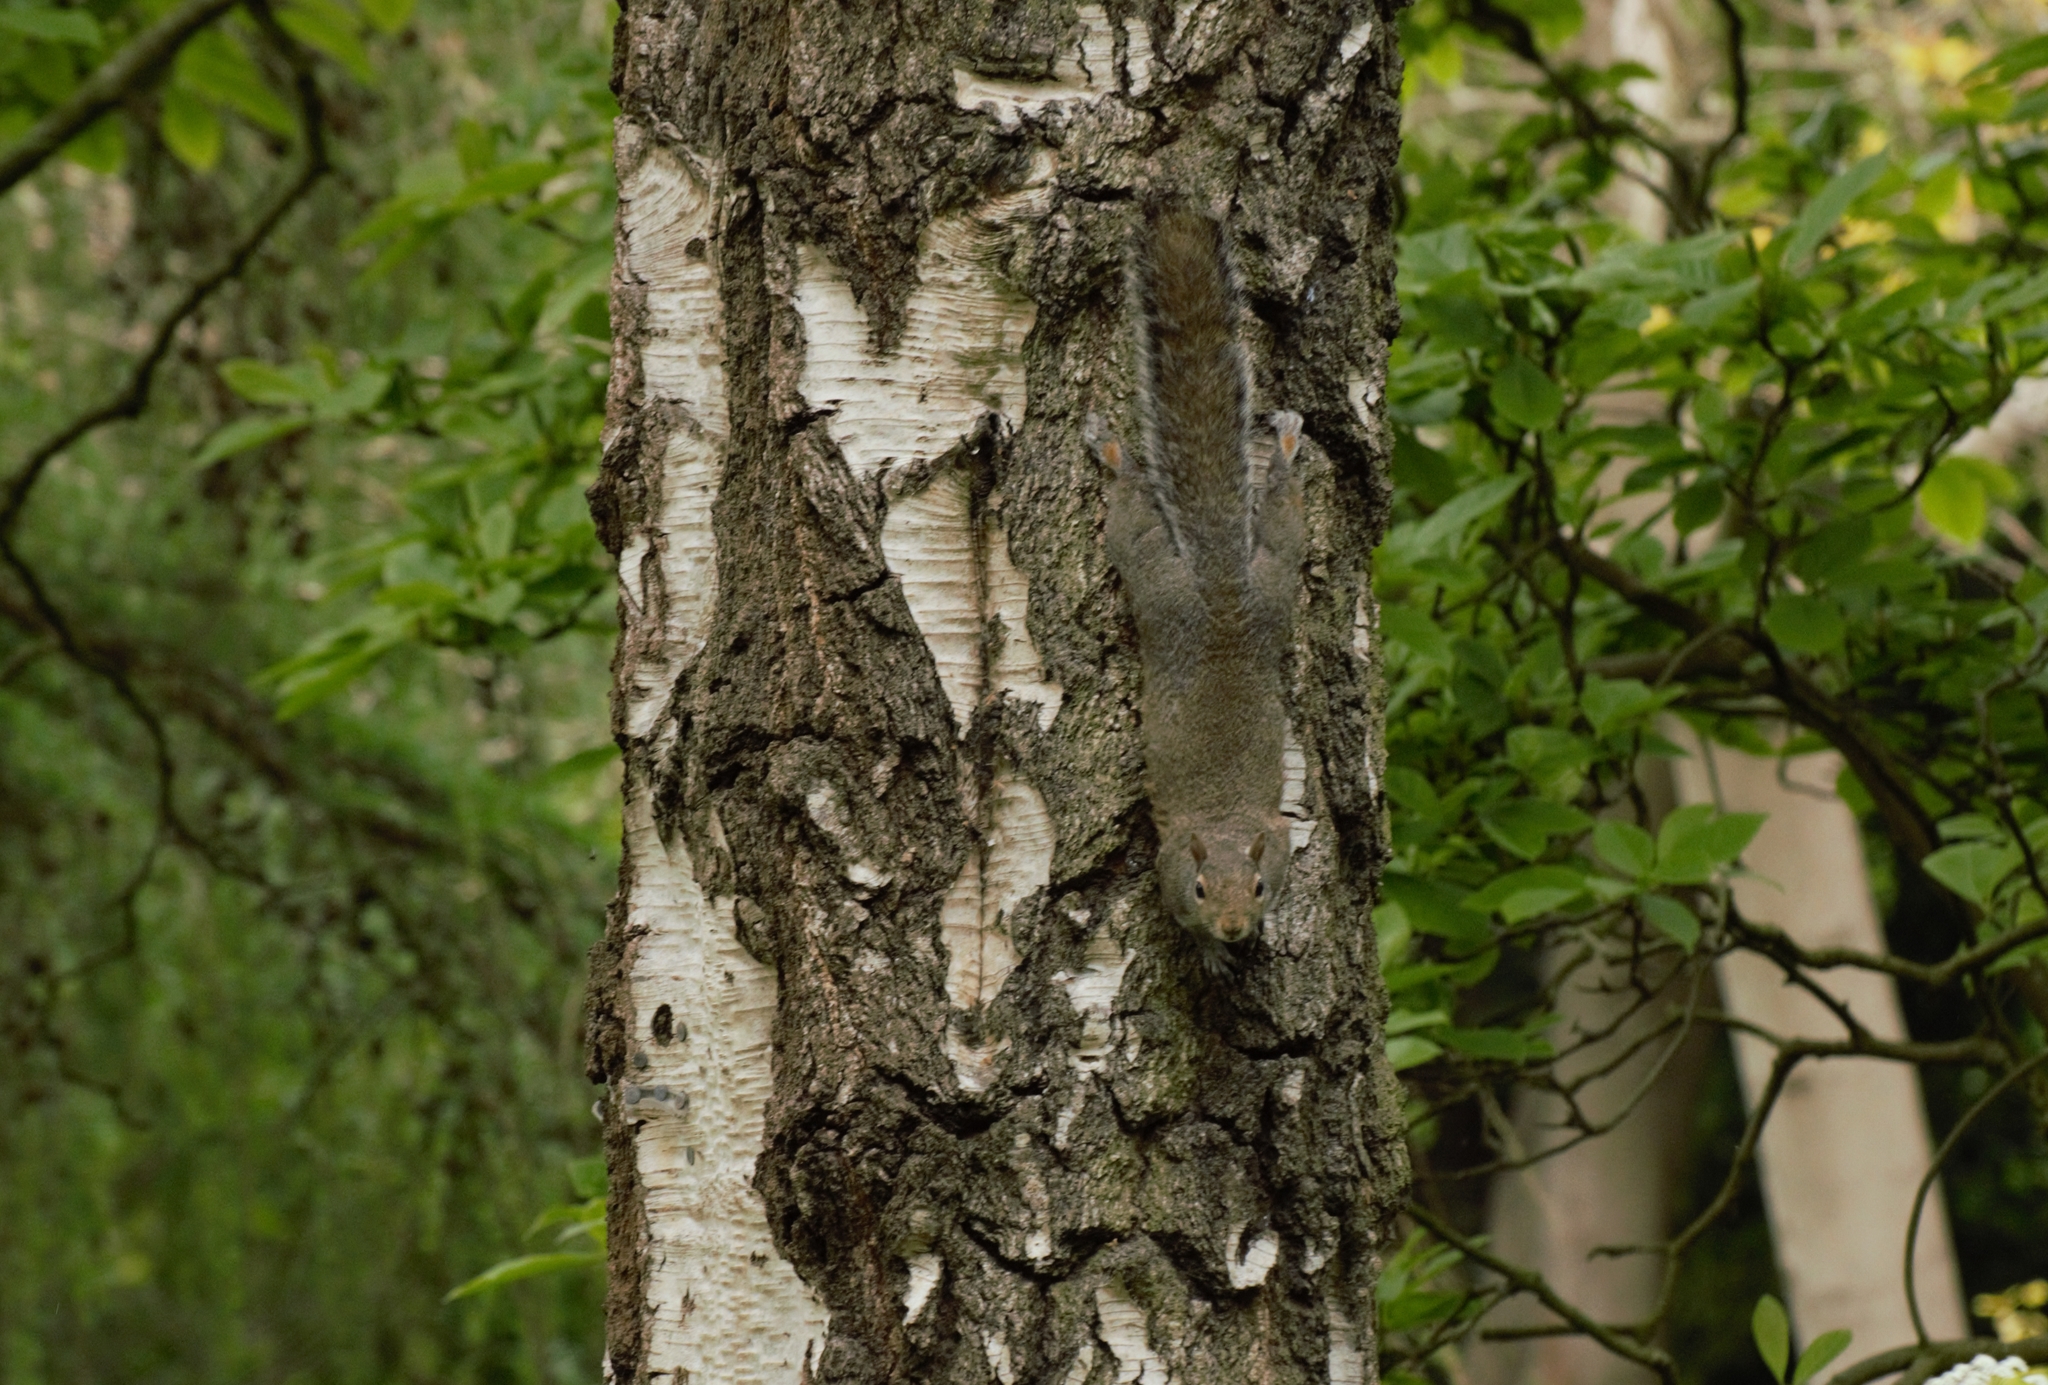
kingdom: Animalia
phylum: Chordata
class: Mammalia
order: Rodentia
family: Sciuridae
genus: Sciurus
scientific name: Sciurus carolinensis
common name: Eastern gray squirrel
